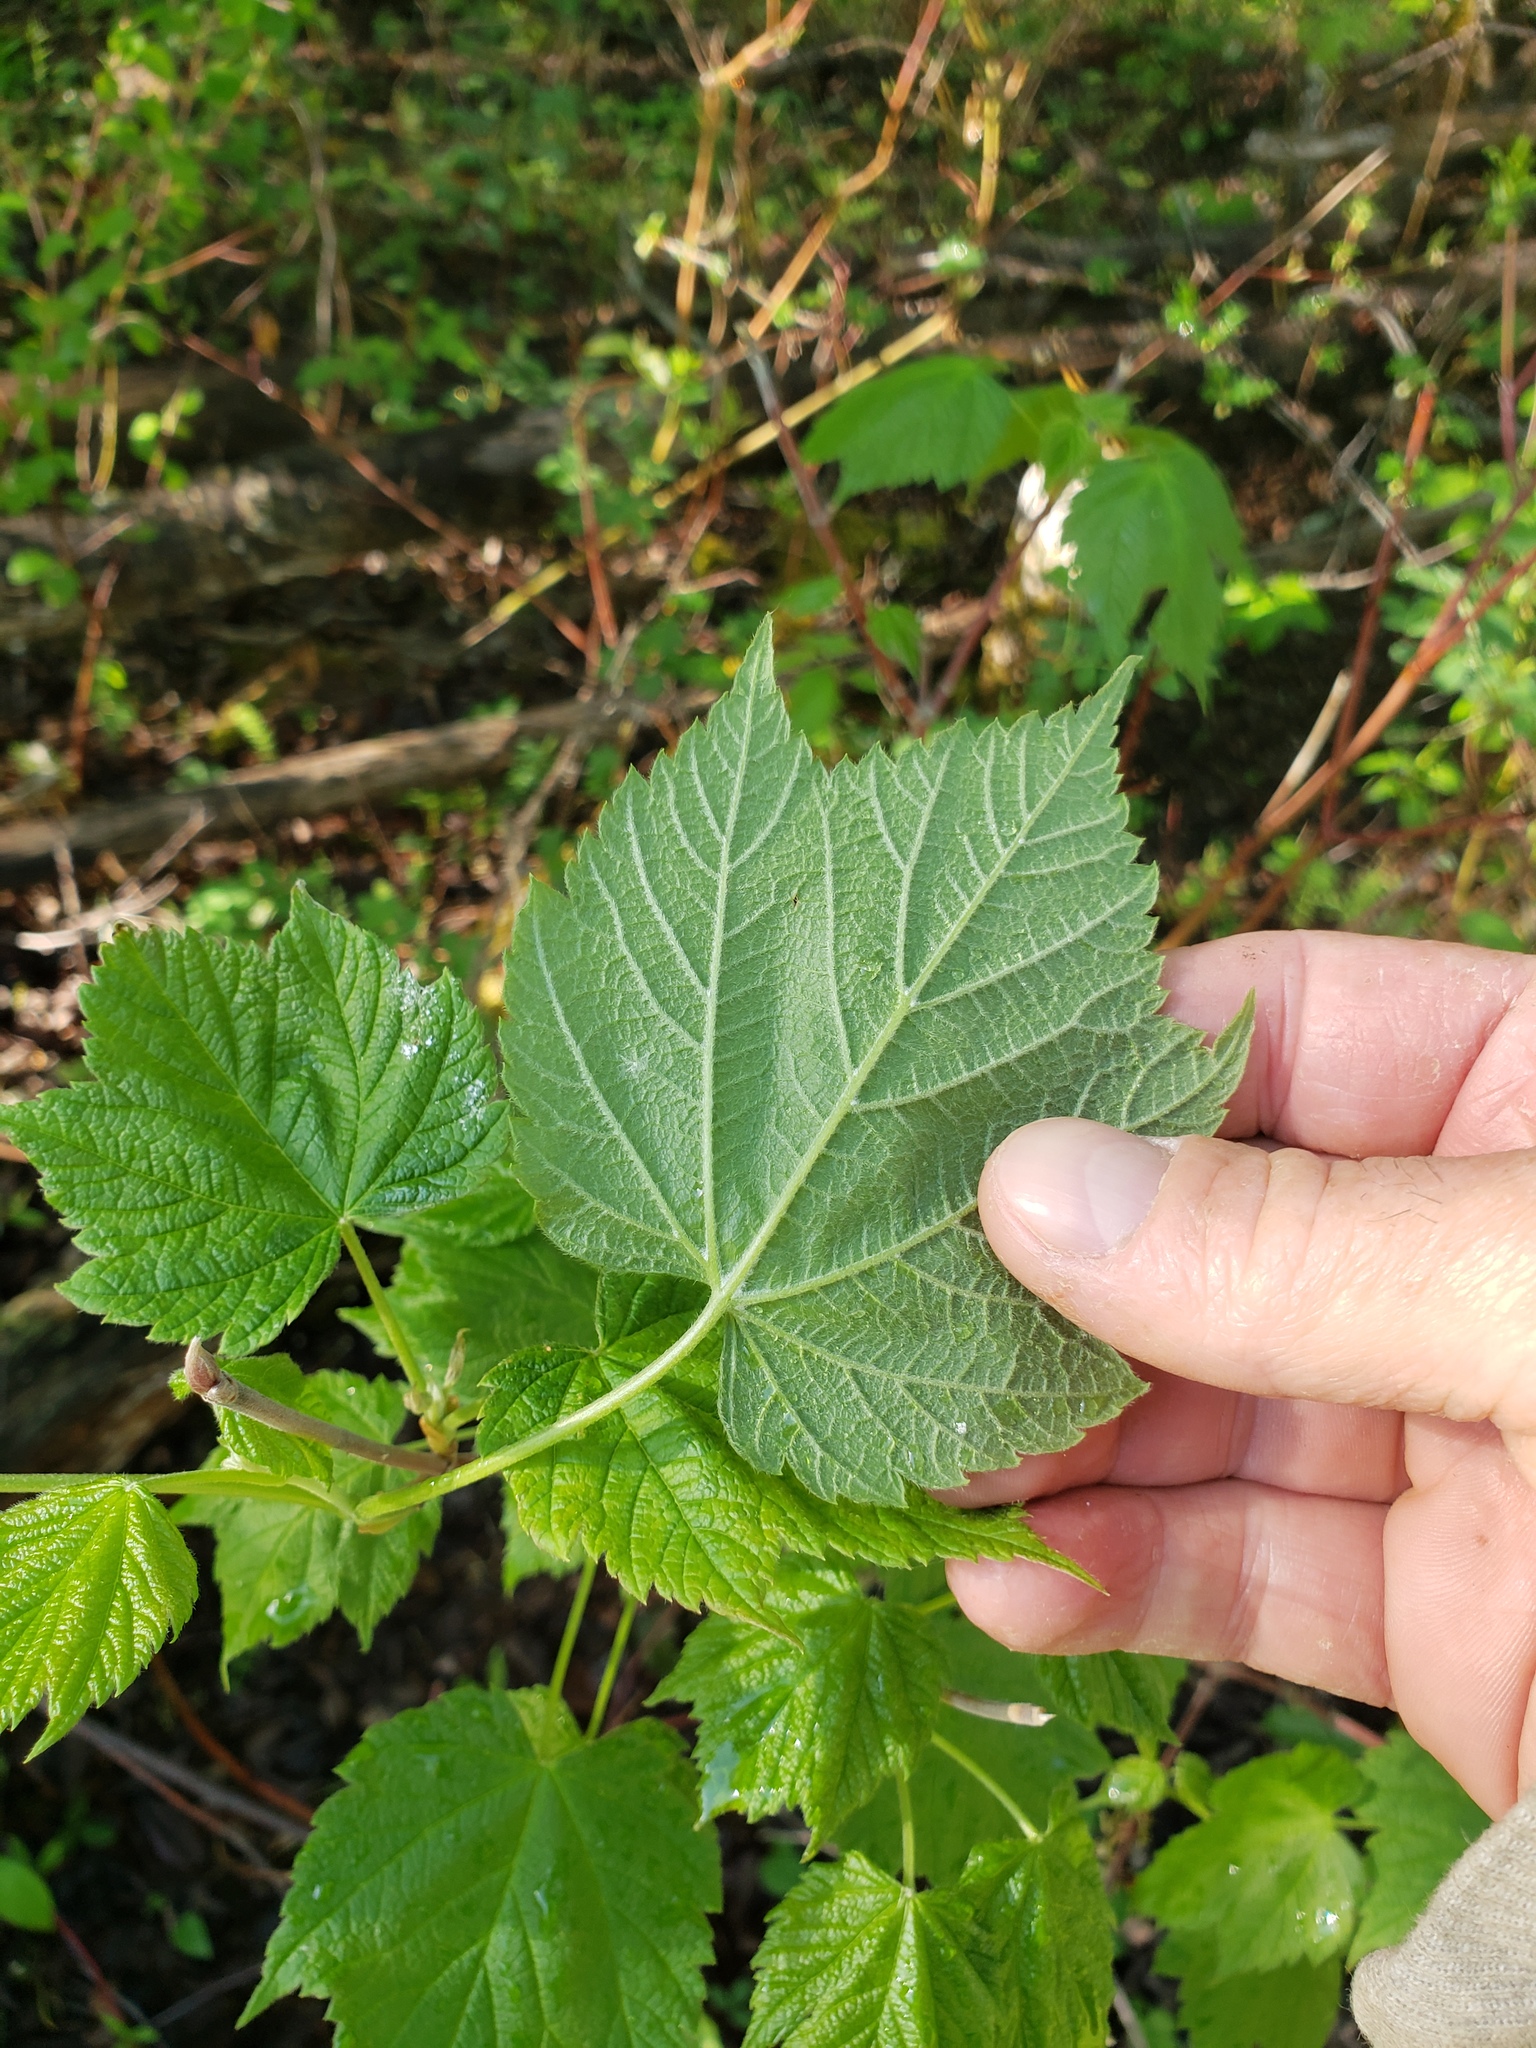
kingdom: Plantae
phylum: Tracheophyta
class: Magnoliopsida
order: Sapindales
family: Sapindaceae
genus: Acer
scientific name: Acer spicatum
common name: Mountain maple
